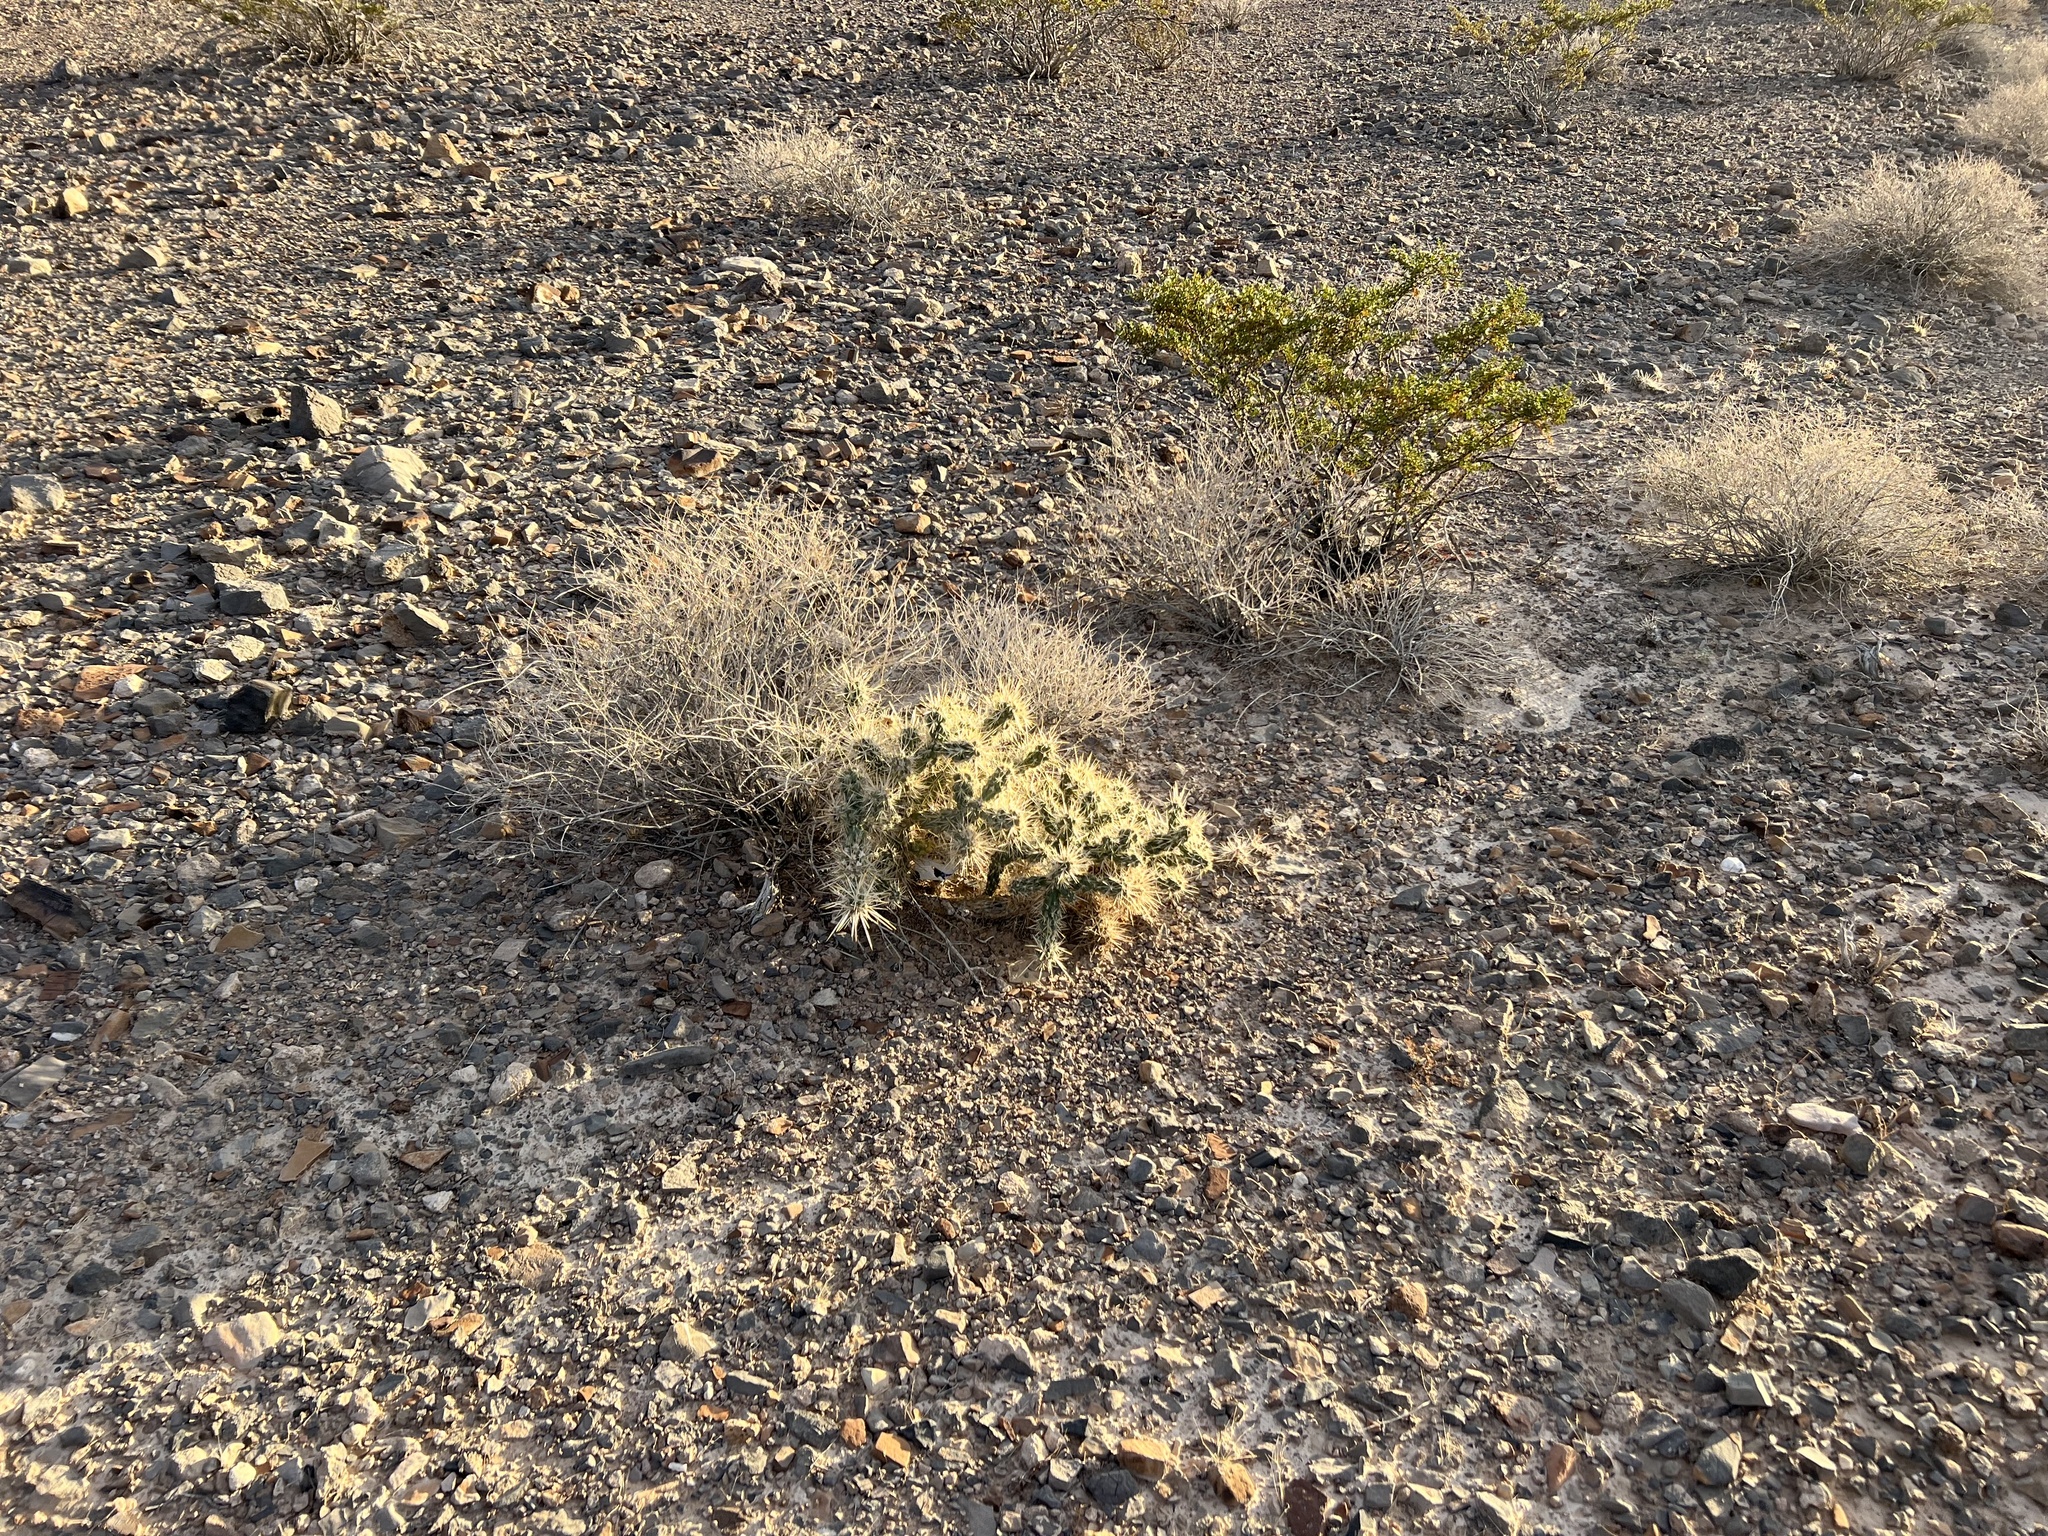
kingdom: Plantae
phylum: Tracheophyta
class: Magnoliopsida
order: Caryophyllales
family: Cactaceae
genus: Cylindropuntia
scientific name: Cylindropuntia echinocarpa
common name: Ground cholla
